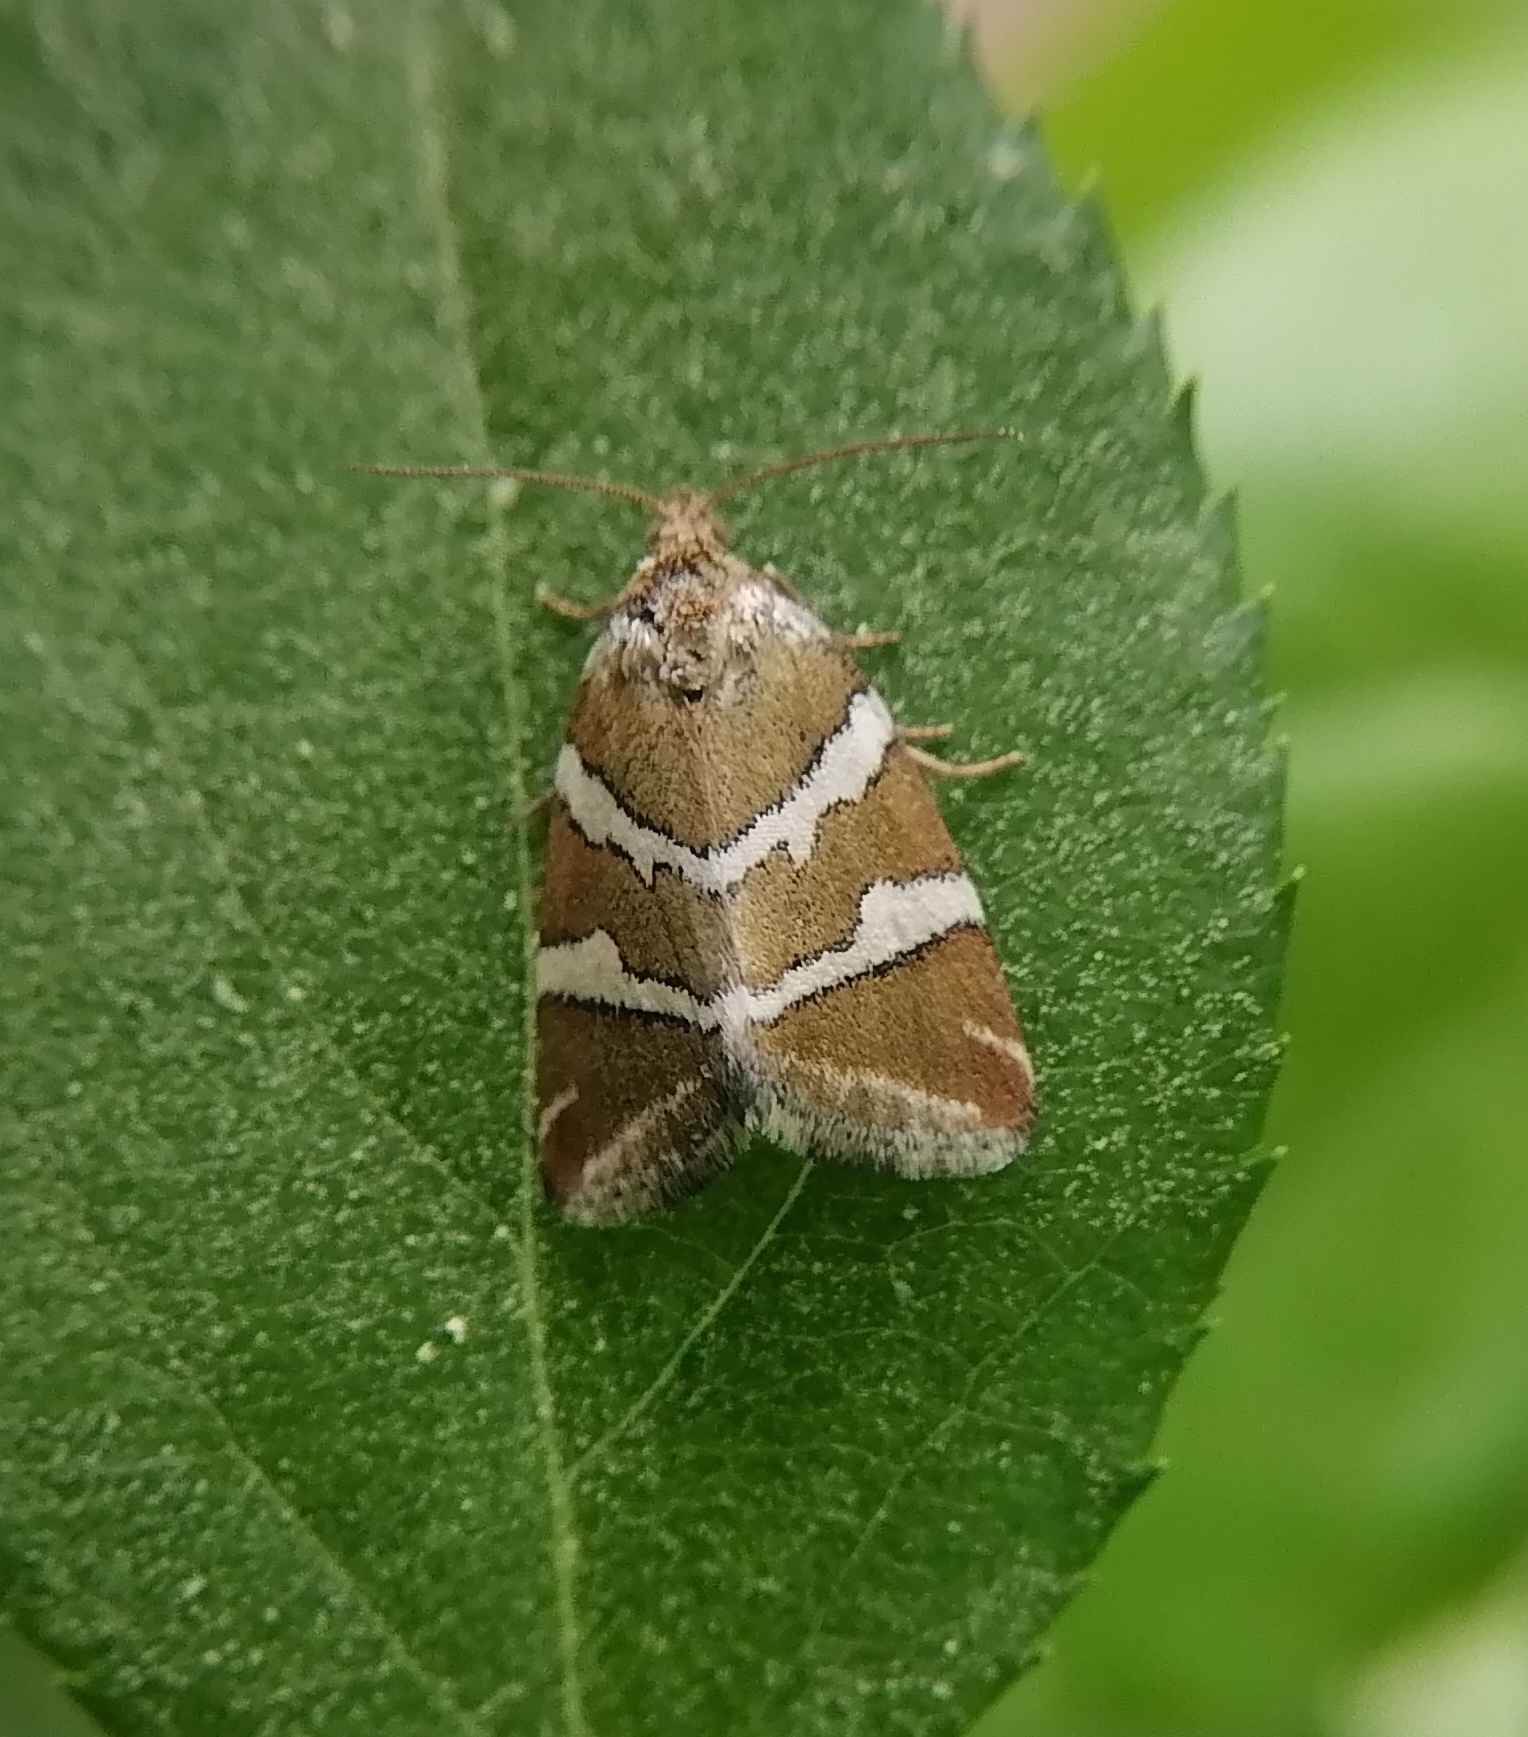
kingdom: Animalia
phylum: Arthropoda
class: Insecta
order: Lepidoptera
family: Noctuidae
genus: Deltote
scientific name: Deltote bankiana
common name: Silver barred
